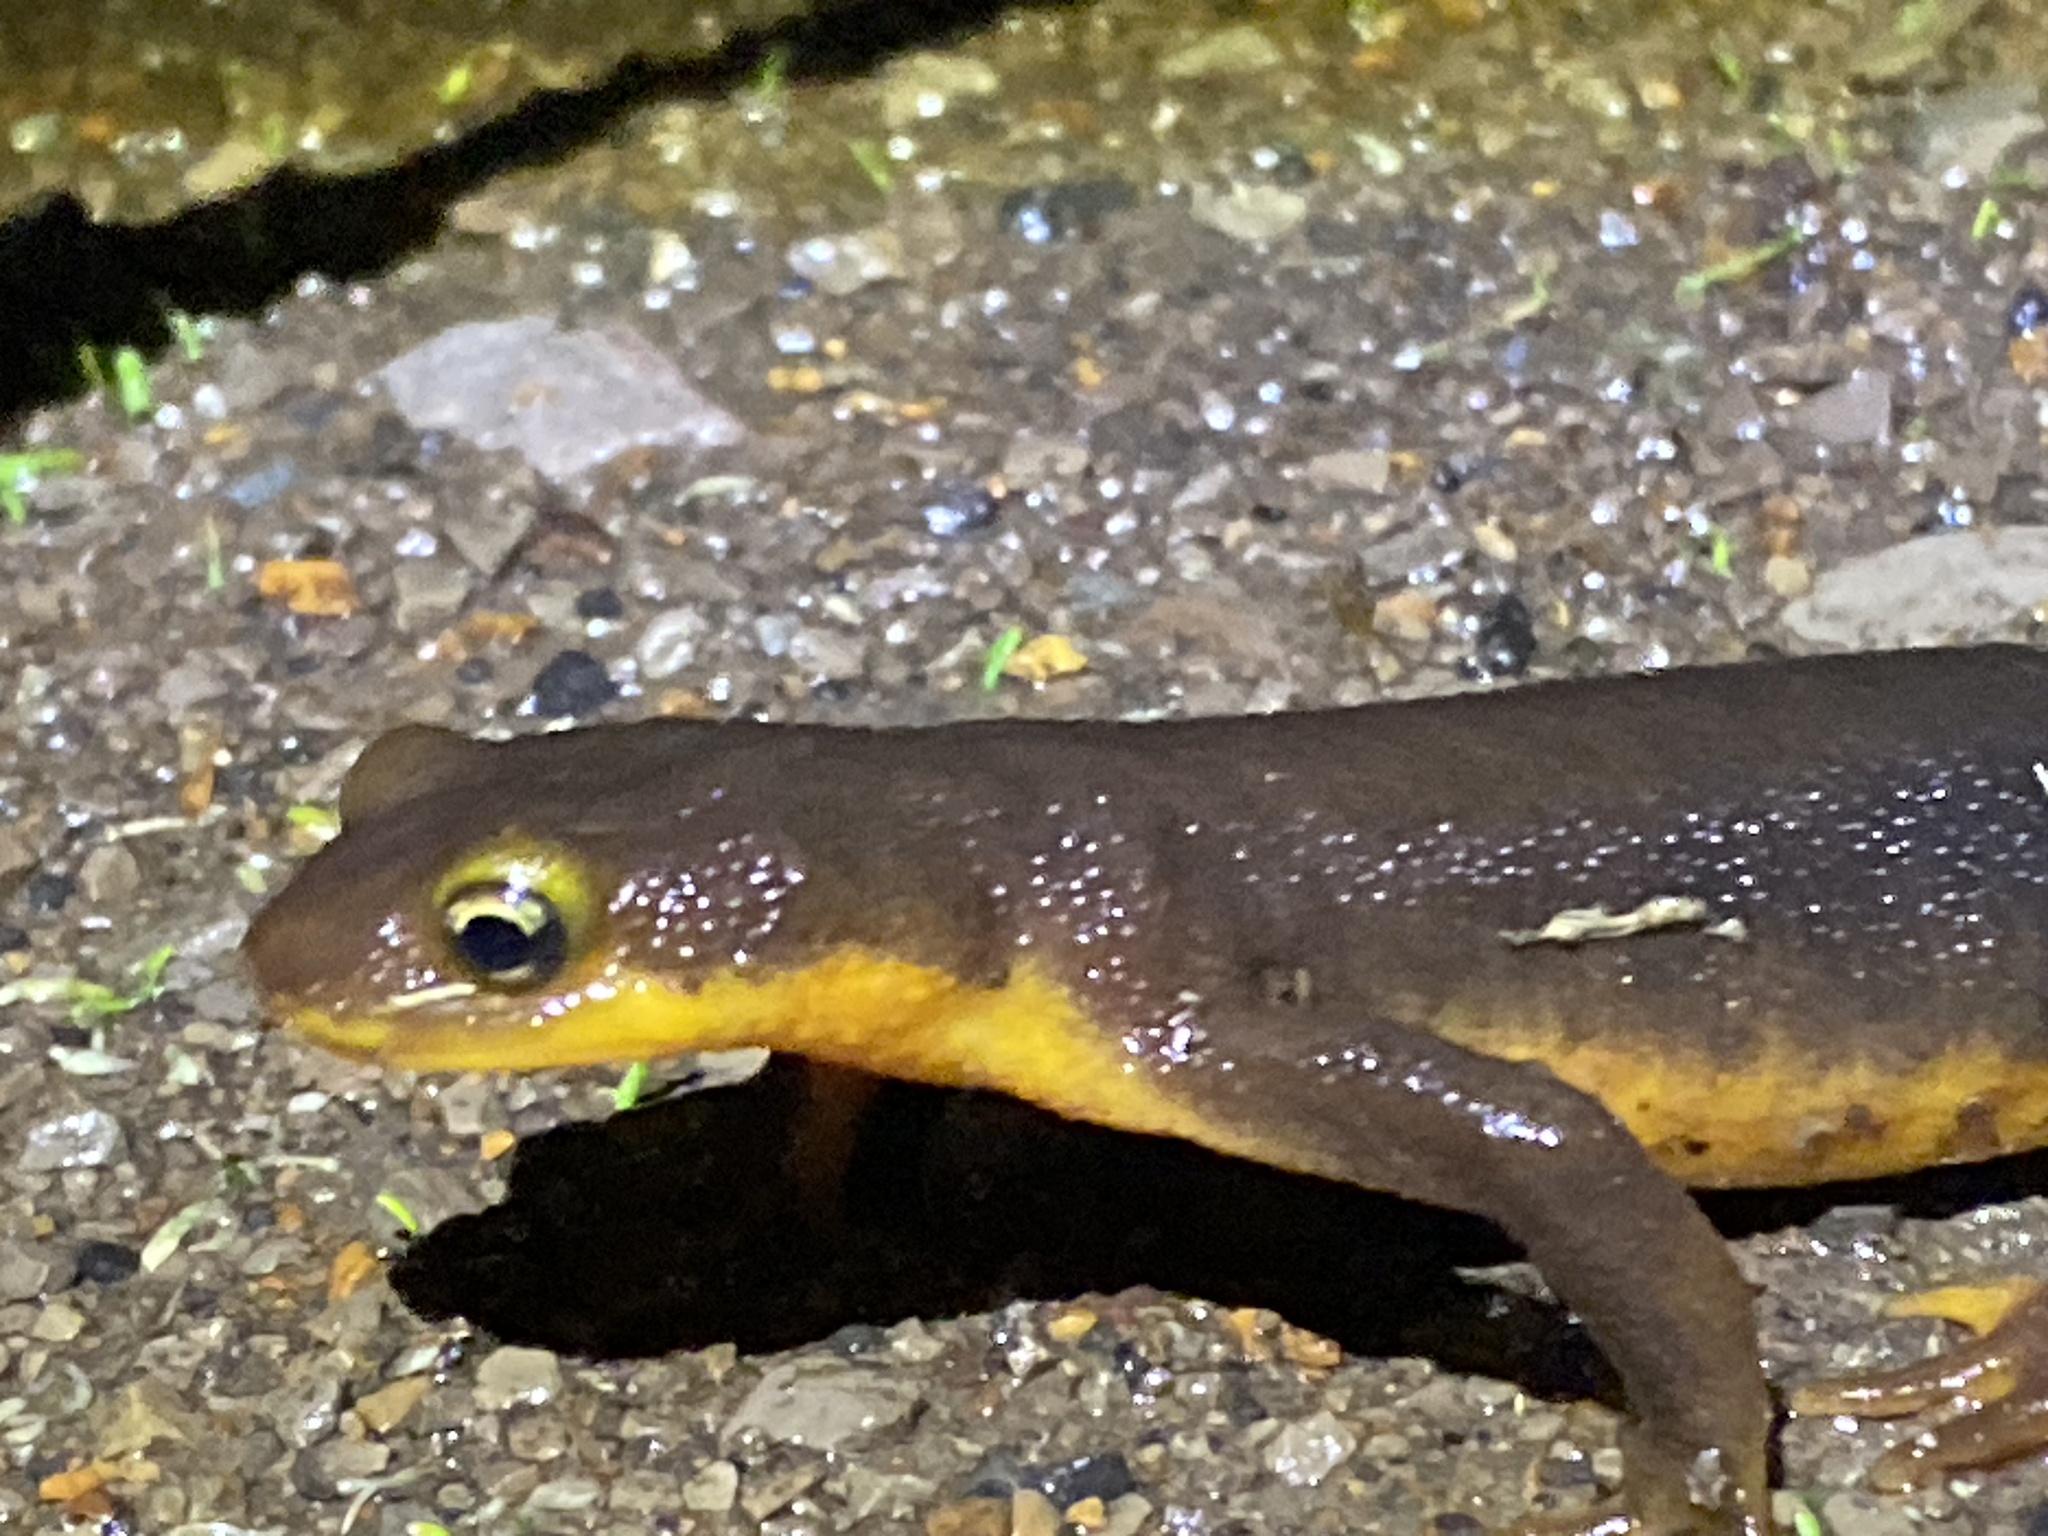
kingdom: Animalia
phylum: Chordata
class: Amphibia
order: Caudata
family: Salamandridae
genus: Taricha
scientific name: Taricha torosa
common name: California newt
